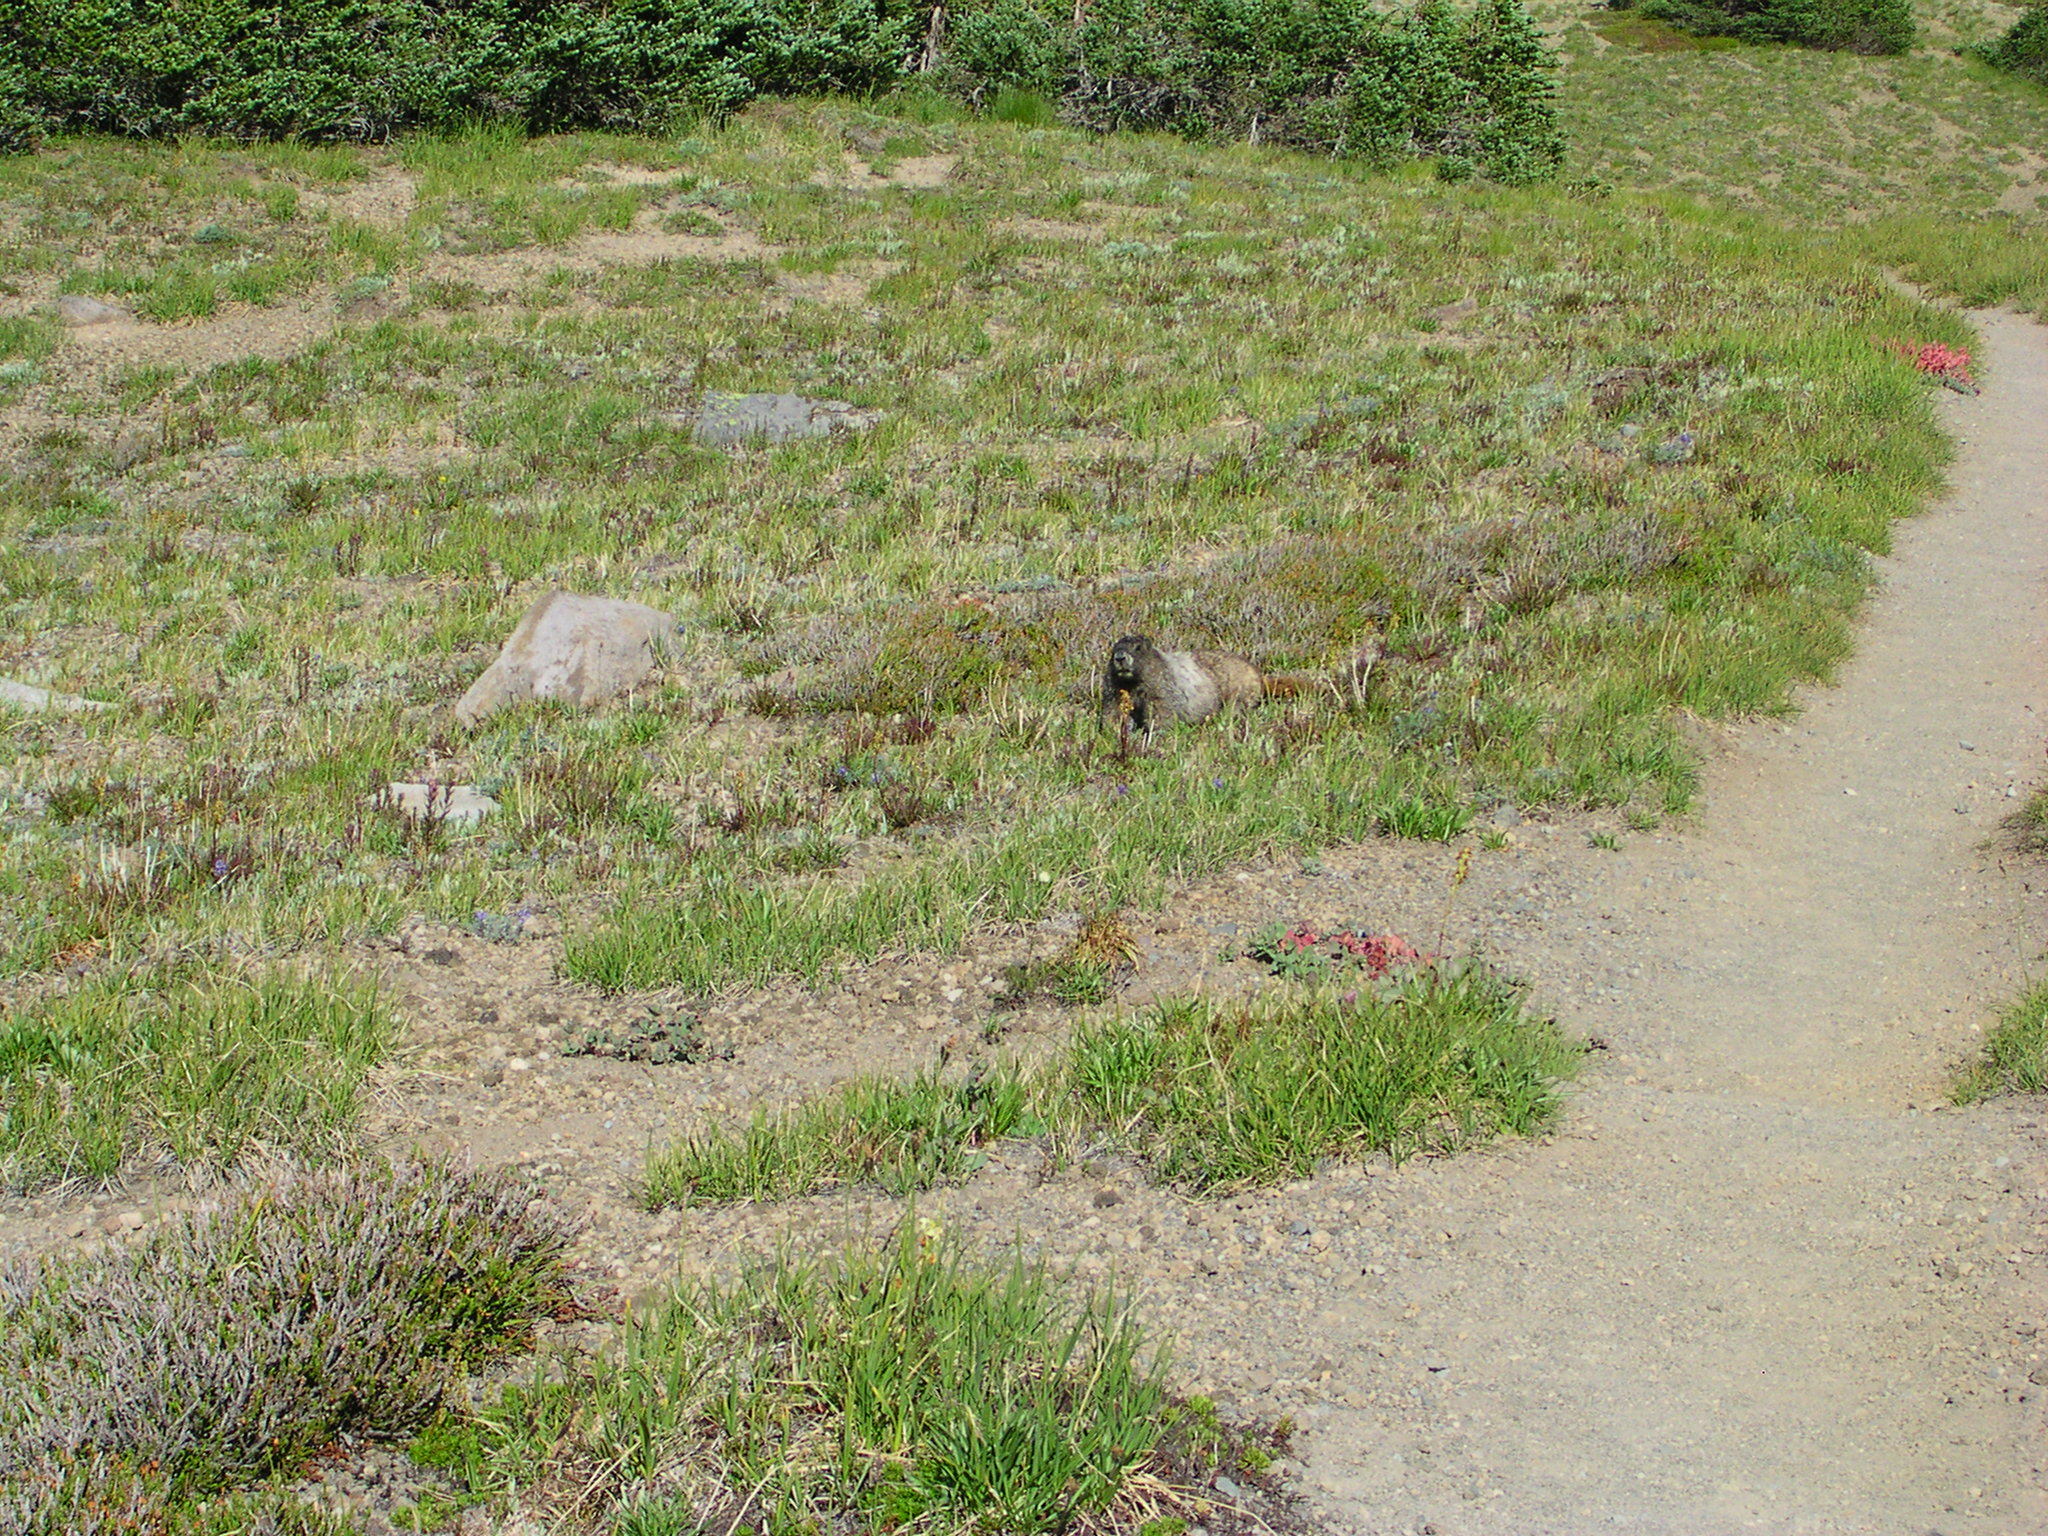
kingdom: Animalia
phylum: Chordata
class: Mammalia
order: Rodentia
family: Sciuridae
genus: Marmota
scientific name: Marmota caligata
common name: Hoary marmot
